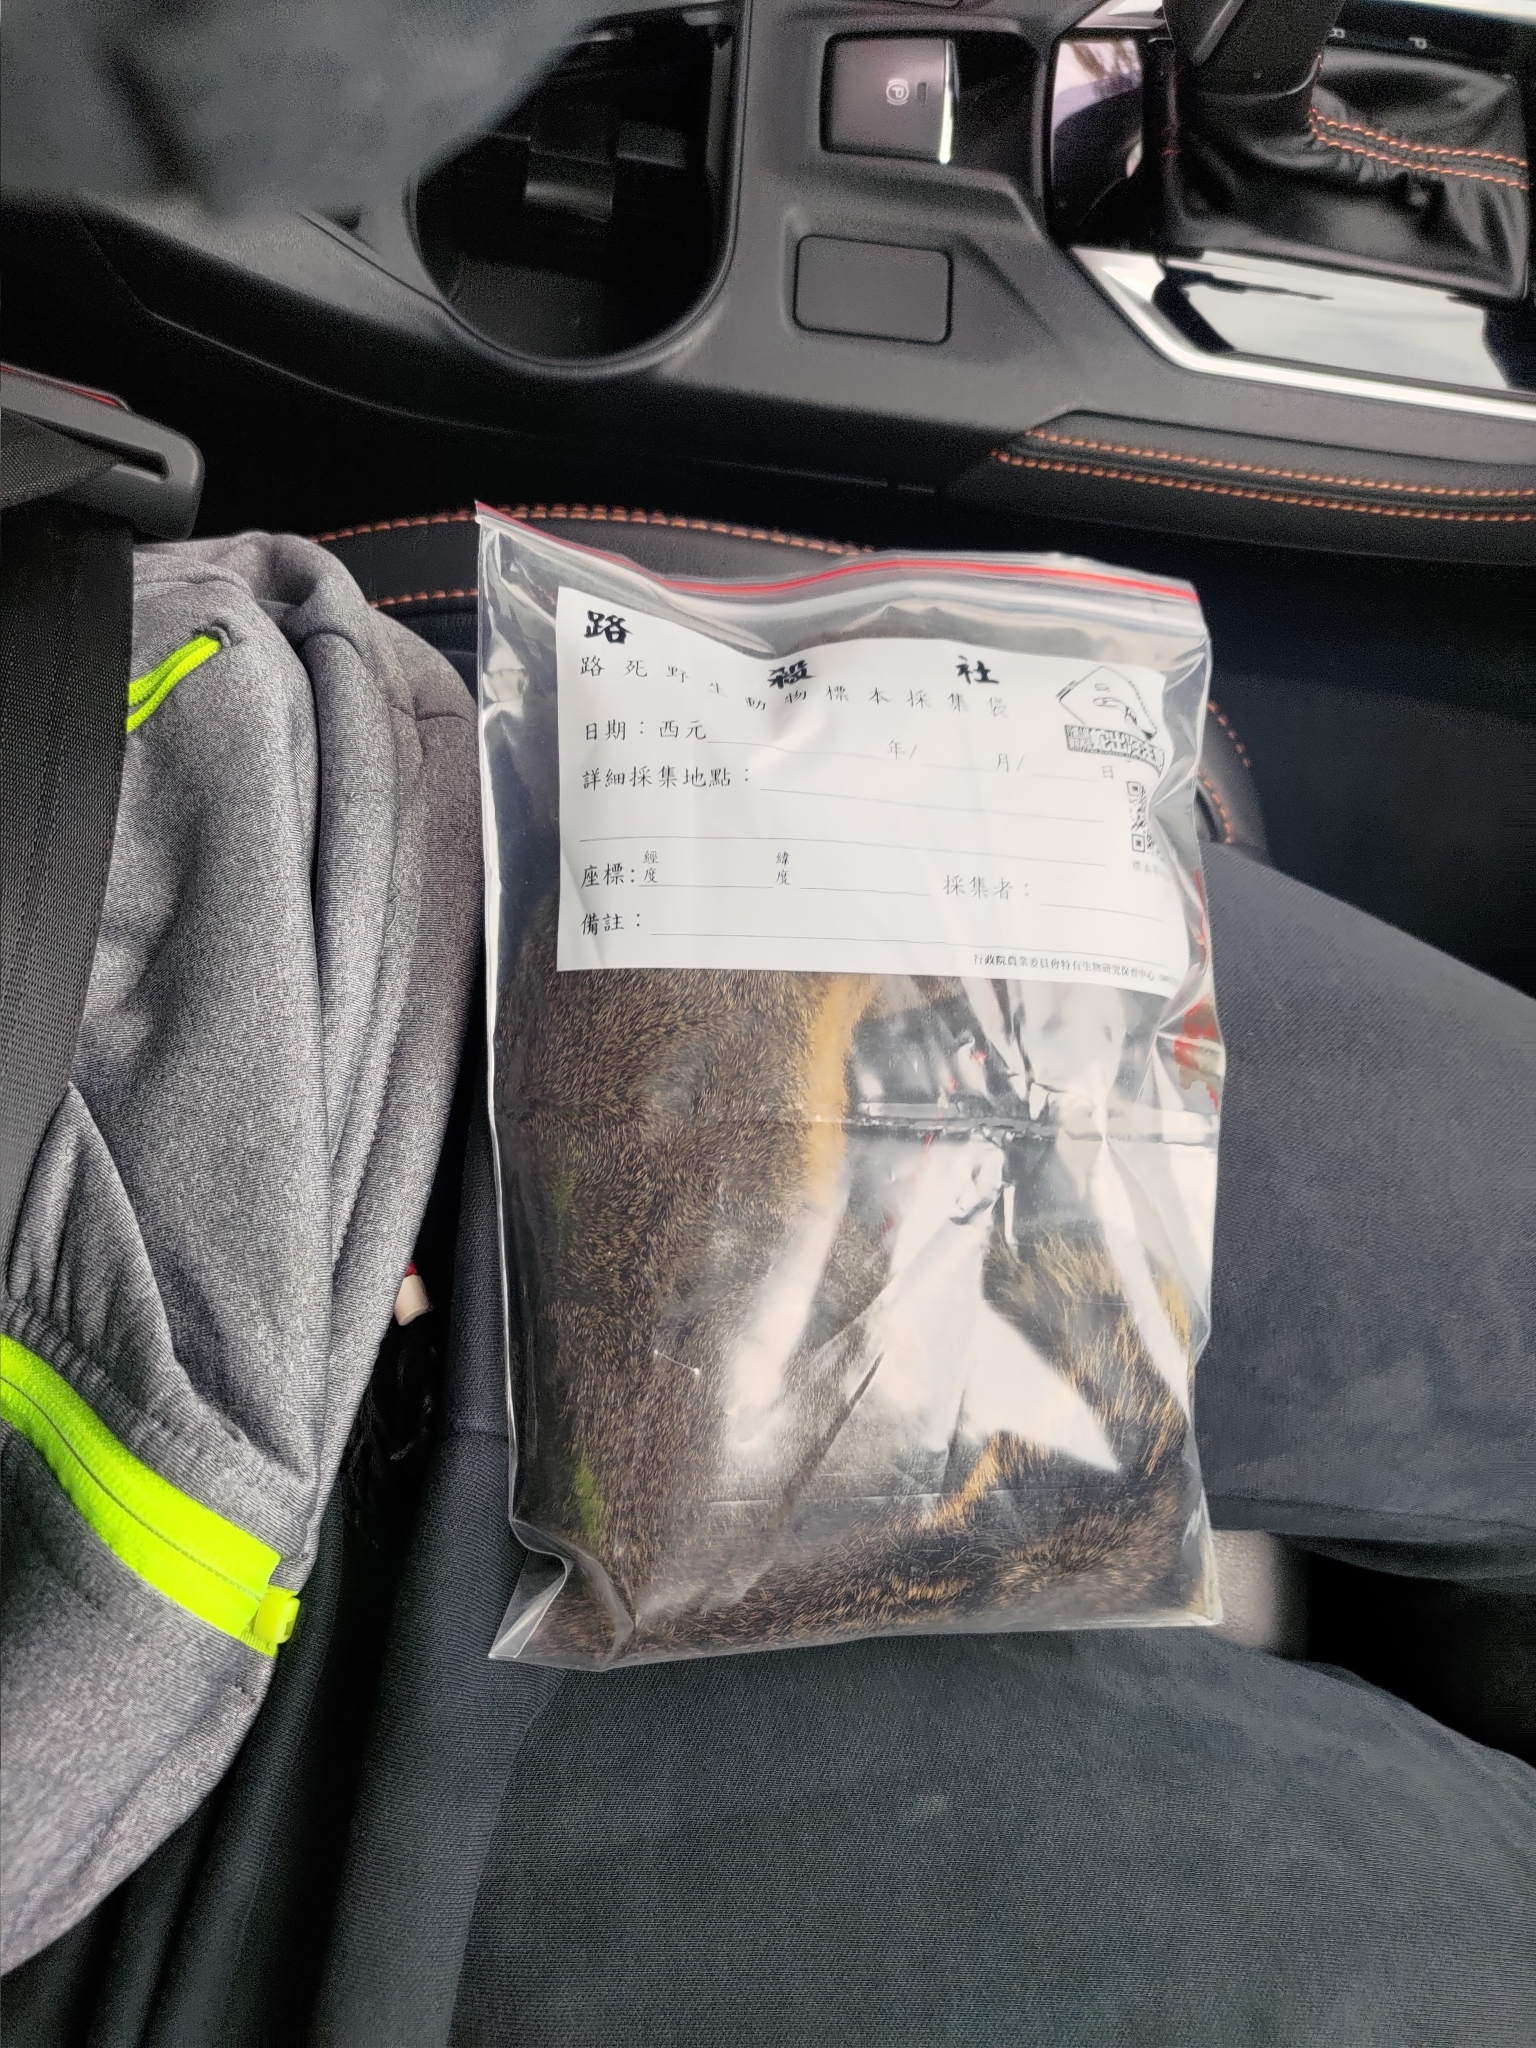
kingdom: Animalia
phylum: Chordata
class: Mammalia
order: Rodentia
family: Sciuridae
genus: Callosciurus
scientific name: Callosciurus erythraeus
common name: Pallas's squirrel
